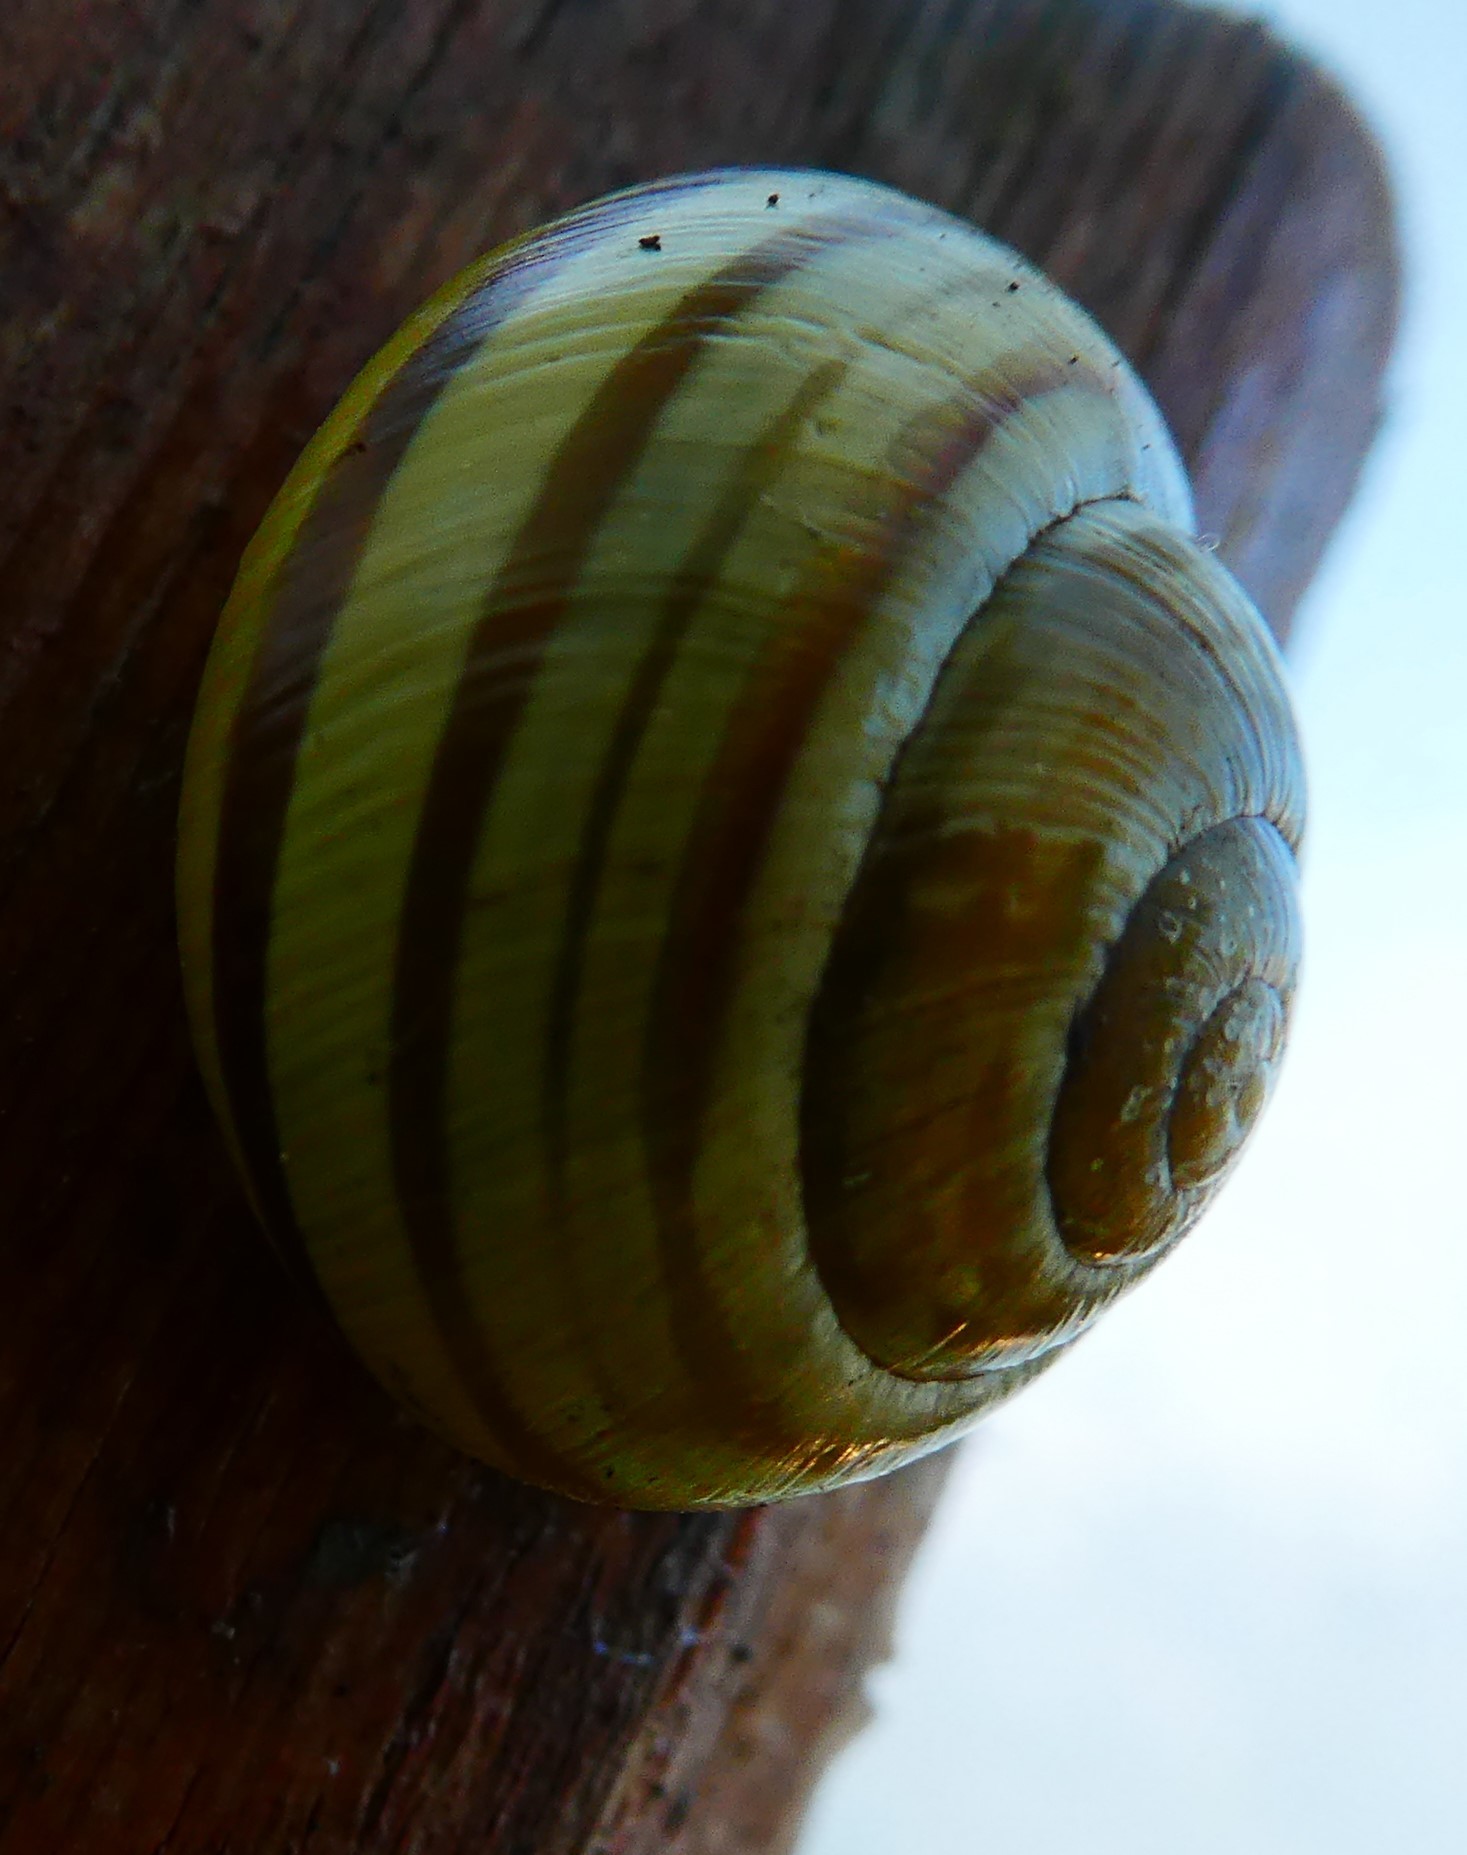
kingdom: Animalia
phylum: Mollusca
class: Gastropoda
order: Stylommatophora
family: Helicidae
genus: Cepaea
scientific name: Cepaea hortensis
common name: White-lip gardensnail
